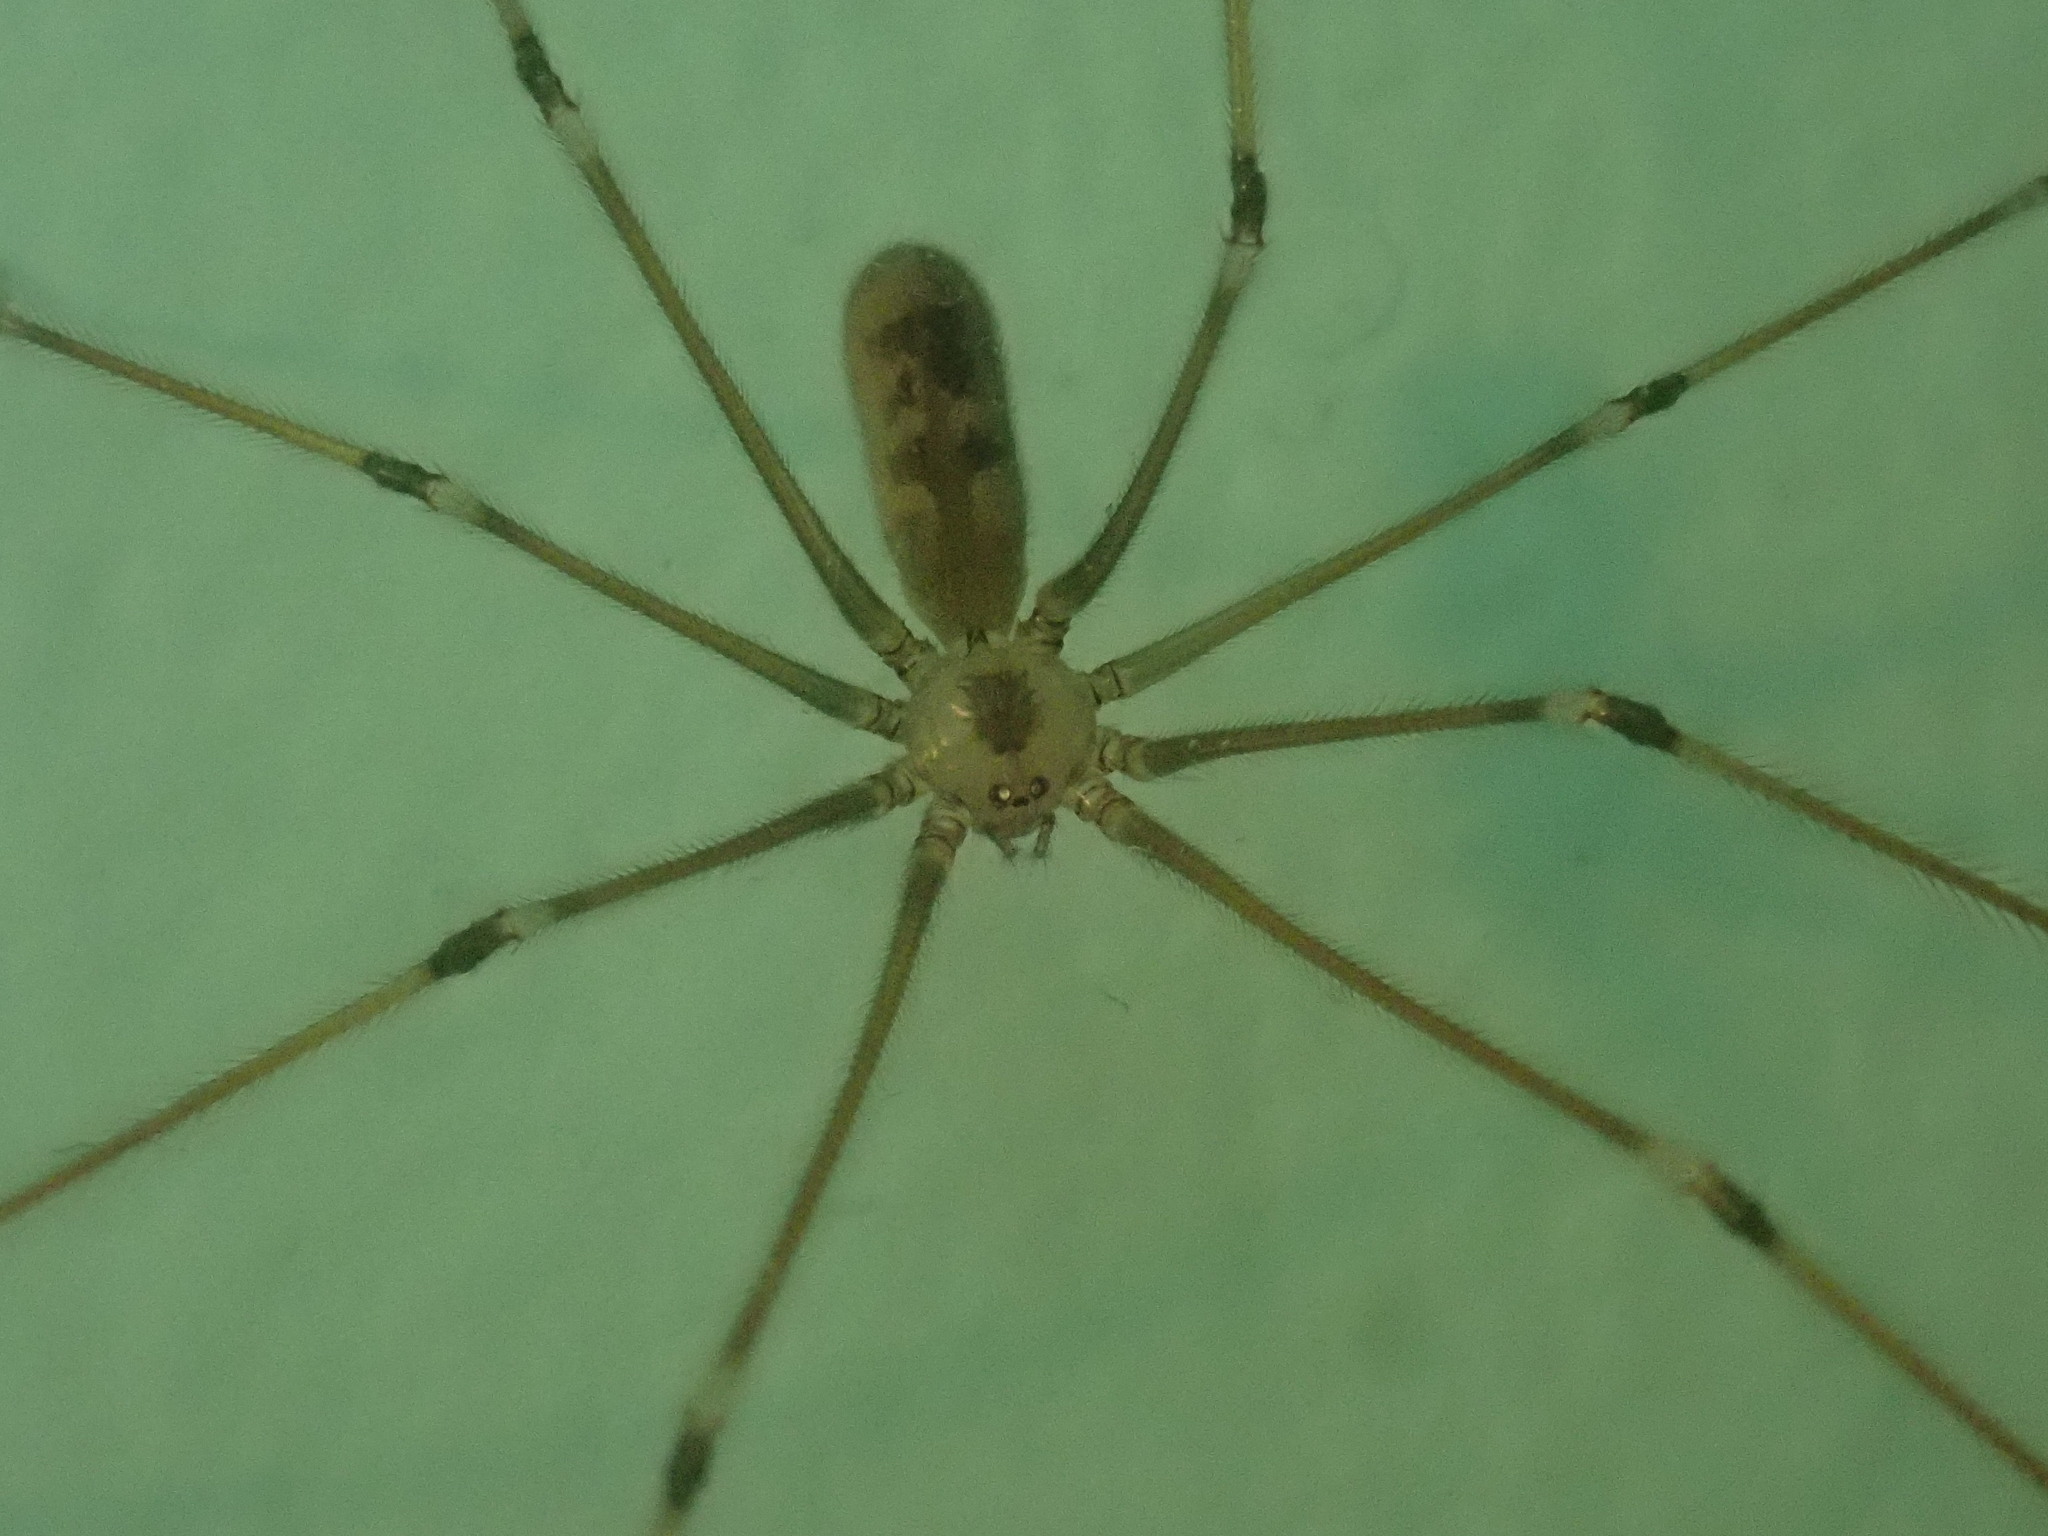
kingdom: Animalia
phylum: Arthropoda
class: Arachnida
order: Araneae
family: Pholcidae
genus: Pholcus
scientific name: Pholcus phalangioides
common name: Longbodied cellar spider
